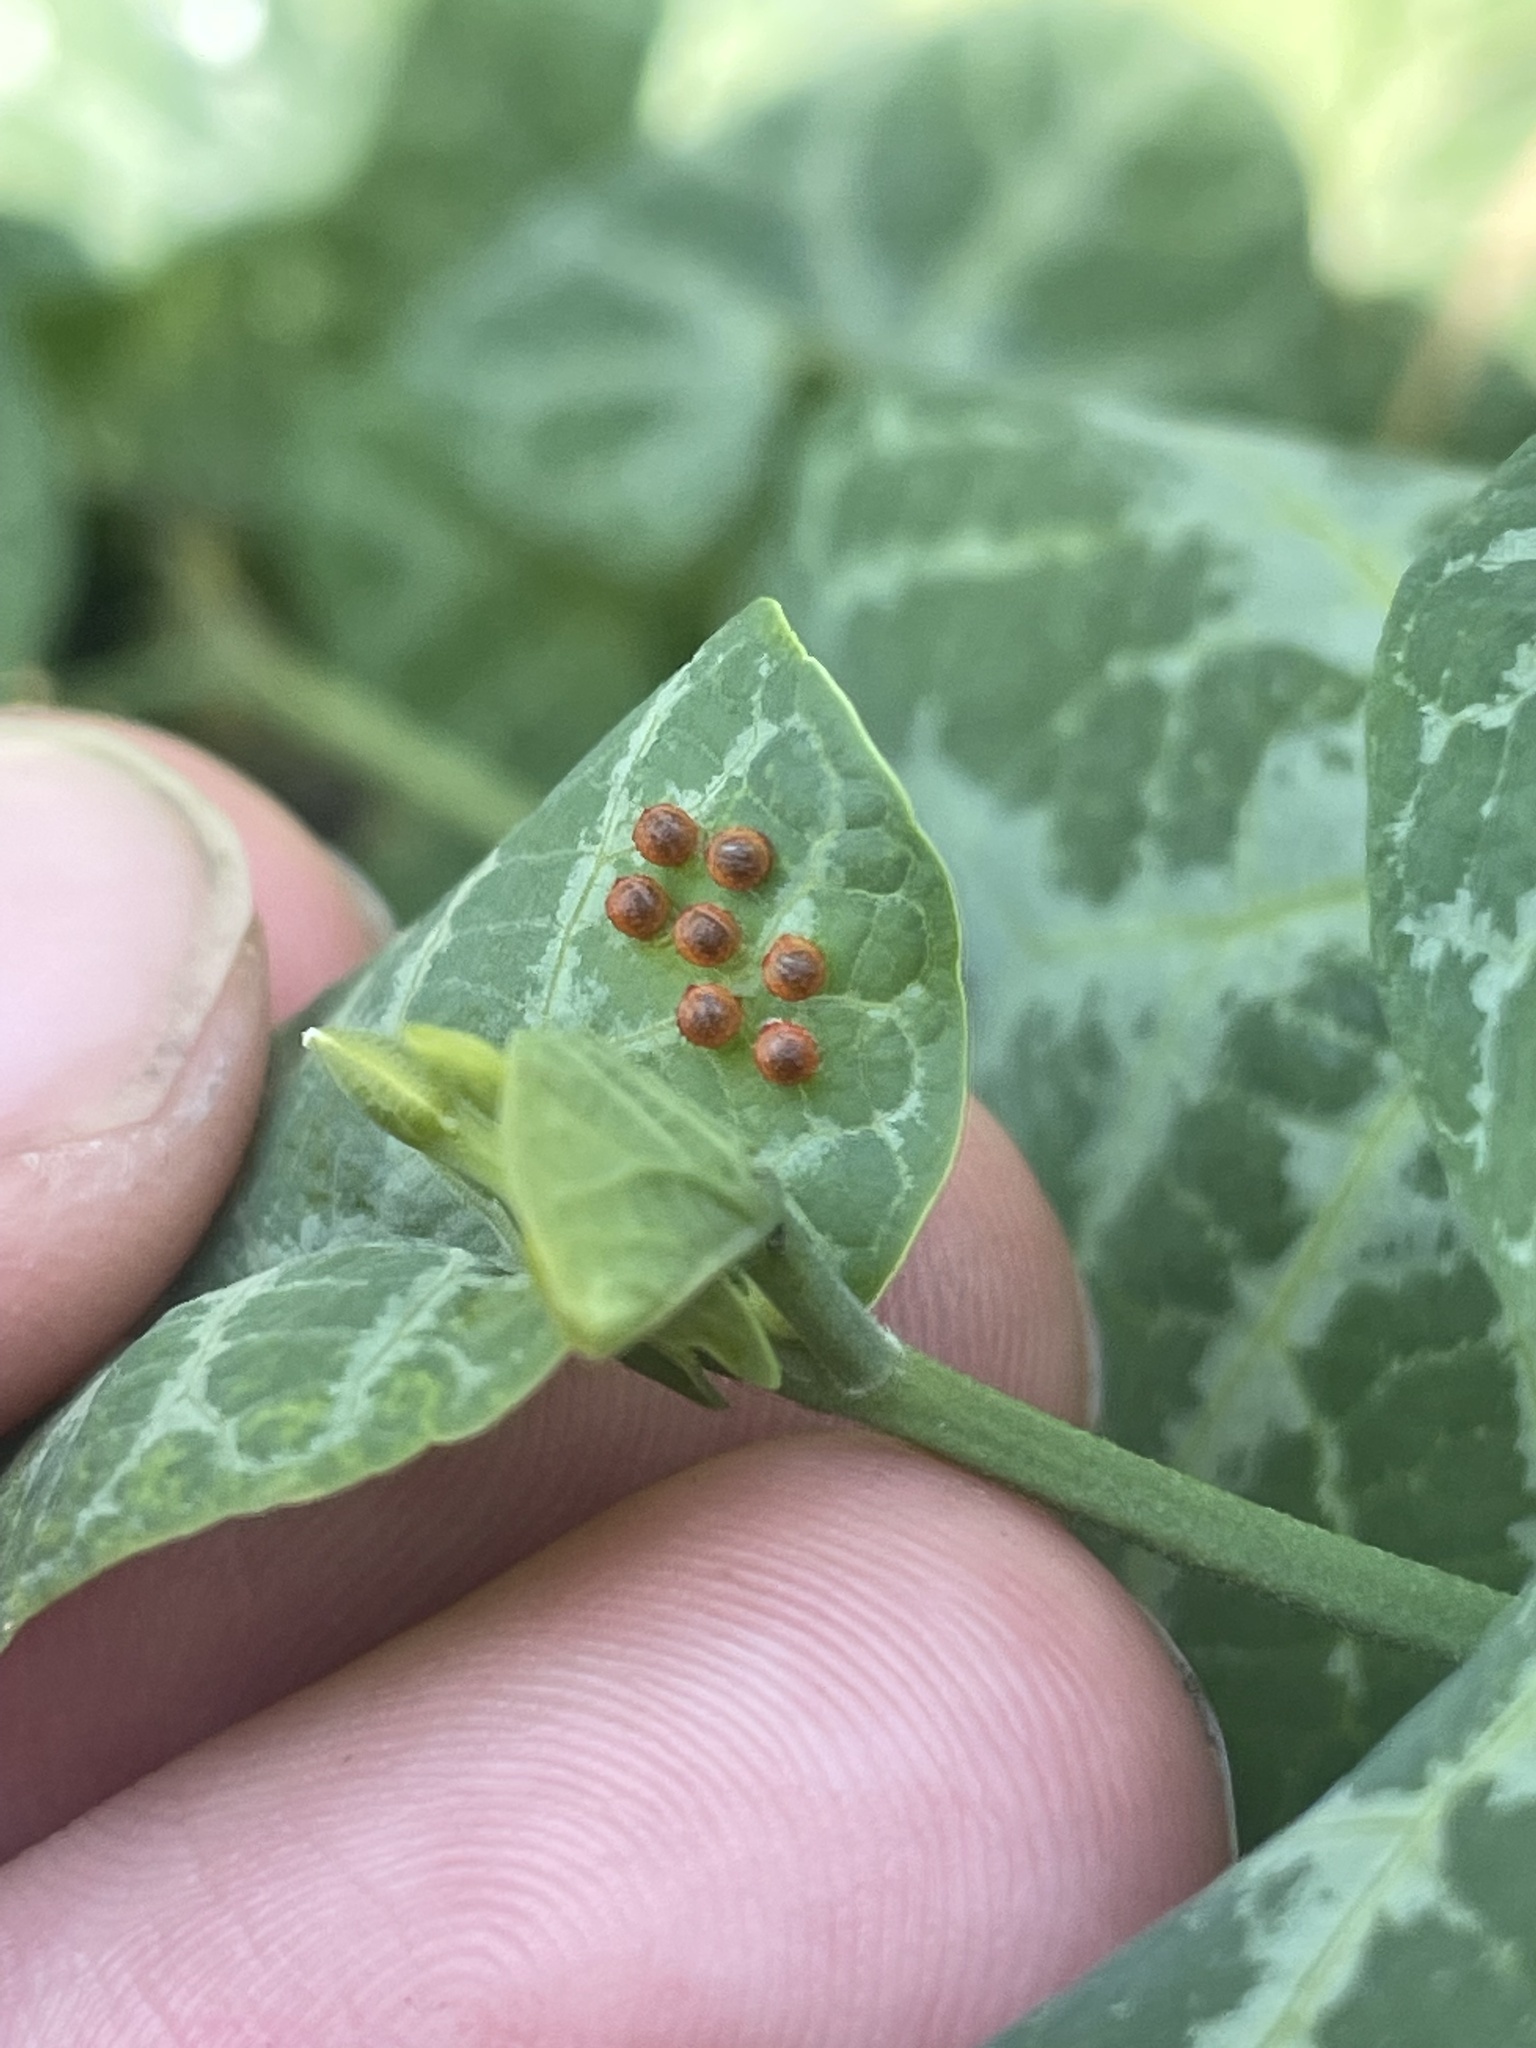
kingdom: Animalia
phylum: Arthropoda
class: Insecta
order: Lepidoptera
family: Papilionidae
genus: Battus
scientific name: Battus philenor
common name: Pipevine swallowtail
